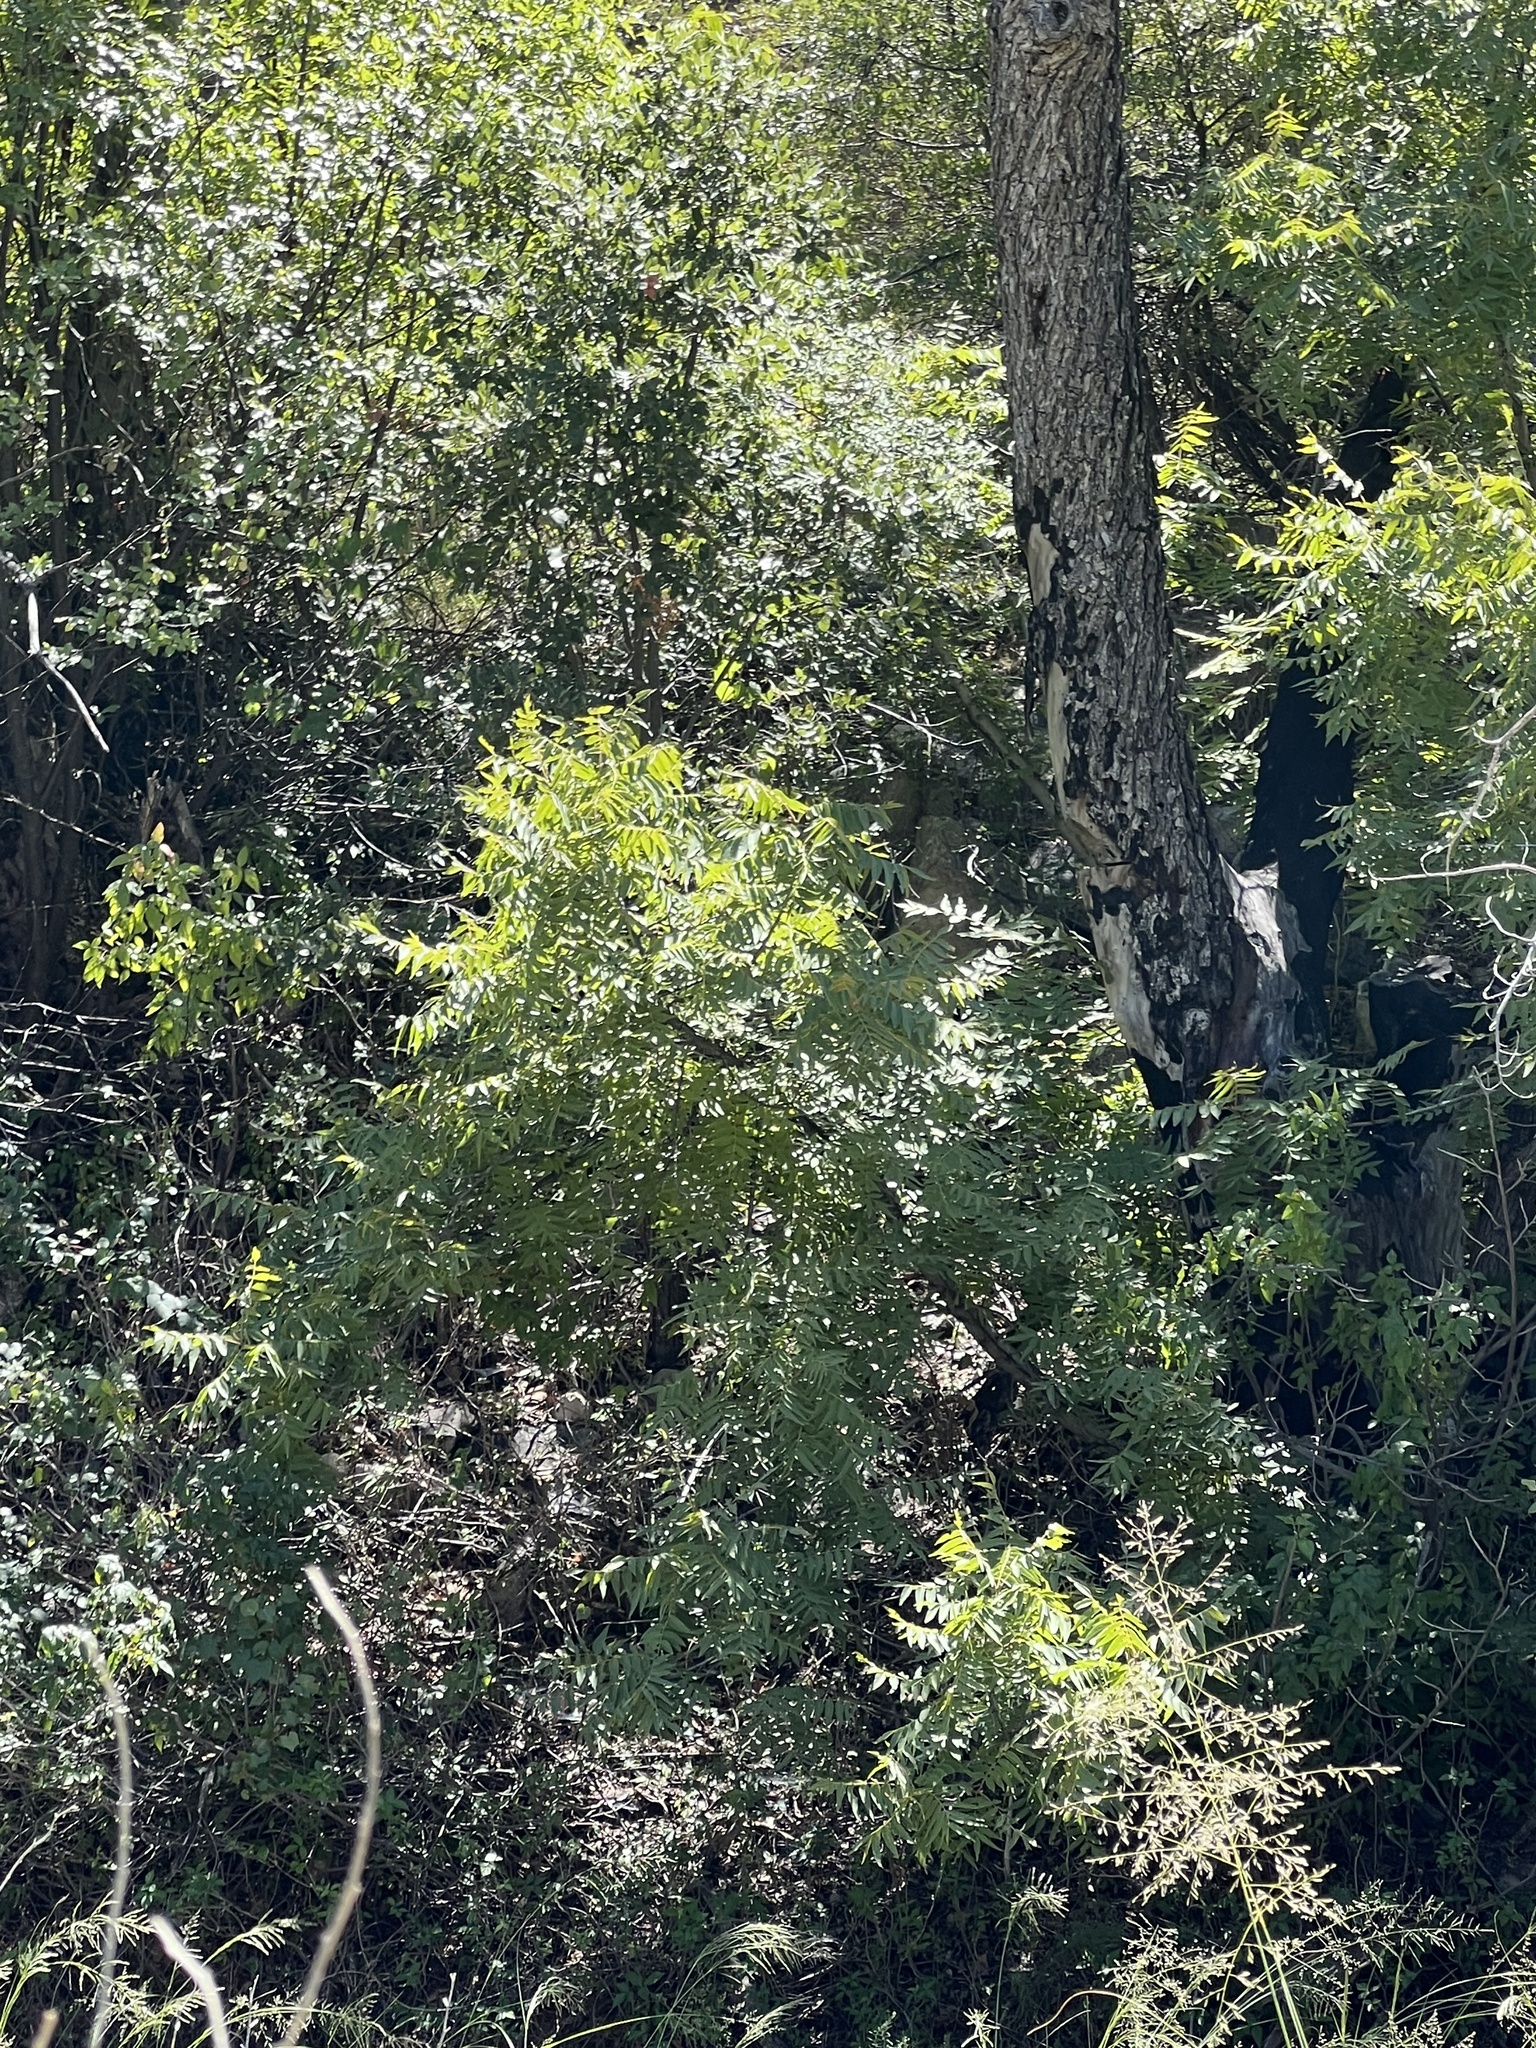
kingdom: Plantae
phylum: Tracheophyta
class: Magnoliopsida
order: Fagales
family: Juglandaceae
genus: Juglans
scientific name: Juglans major
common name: Arizona walnut
